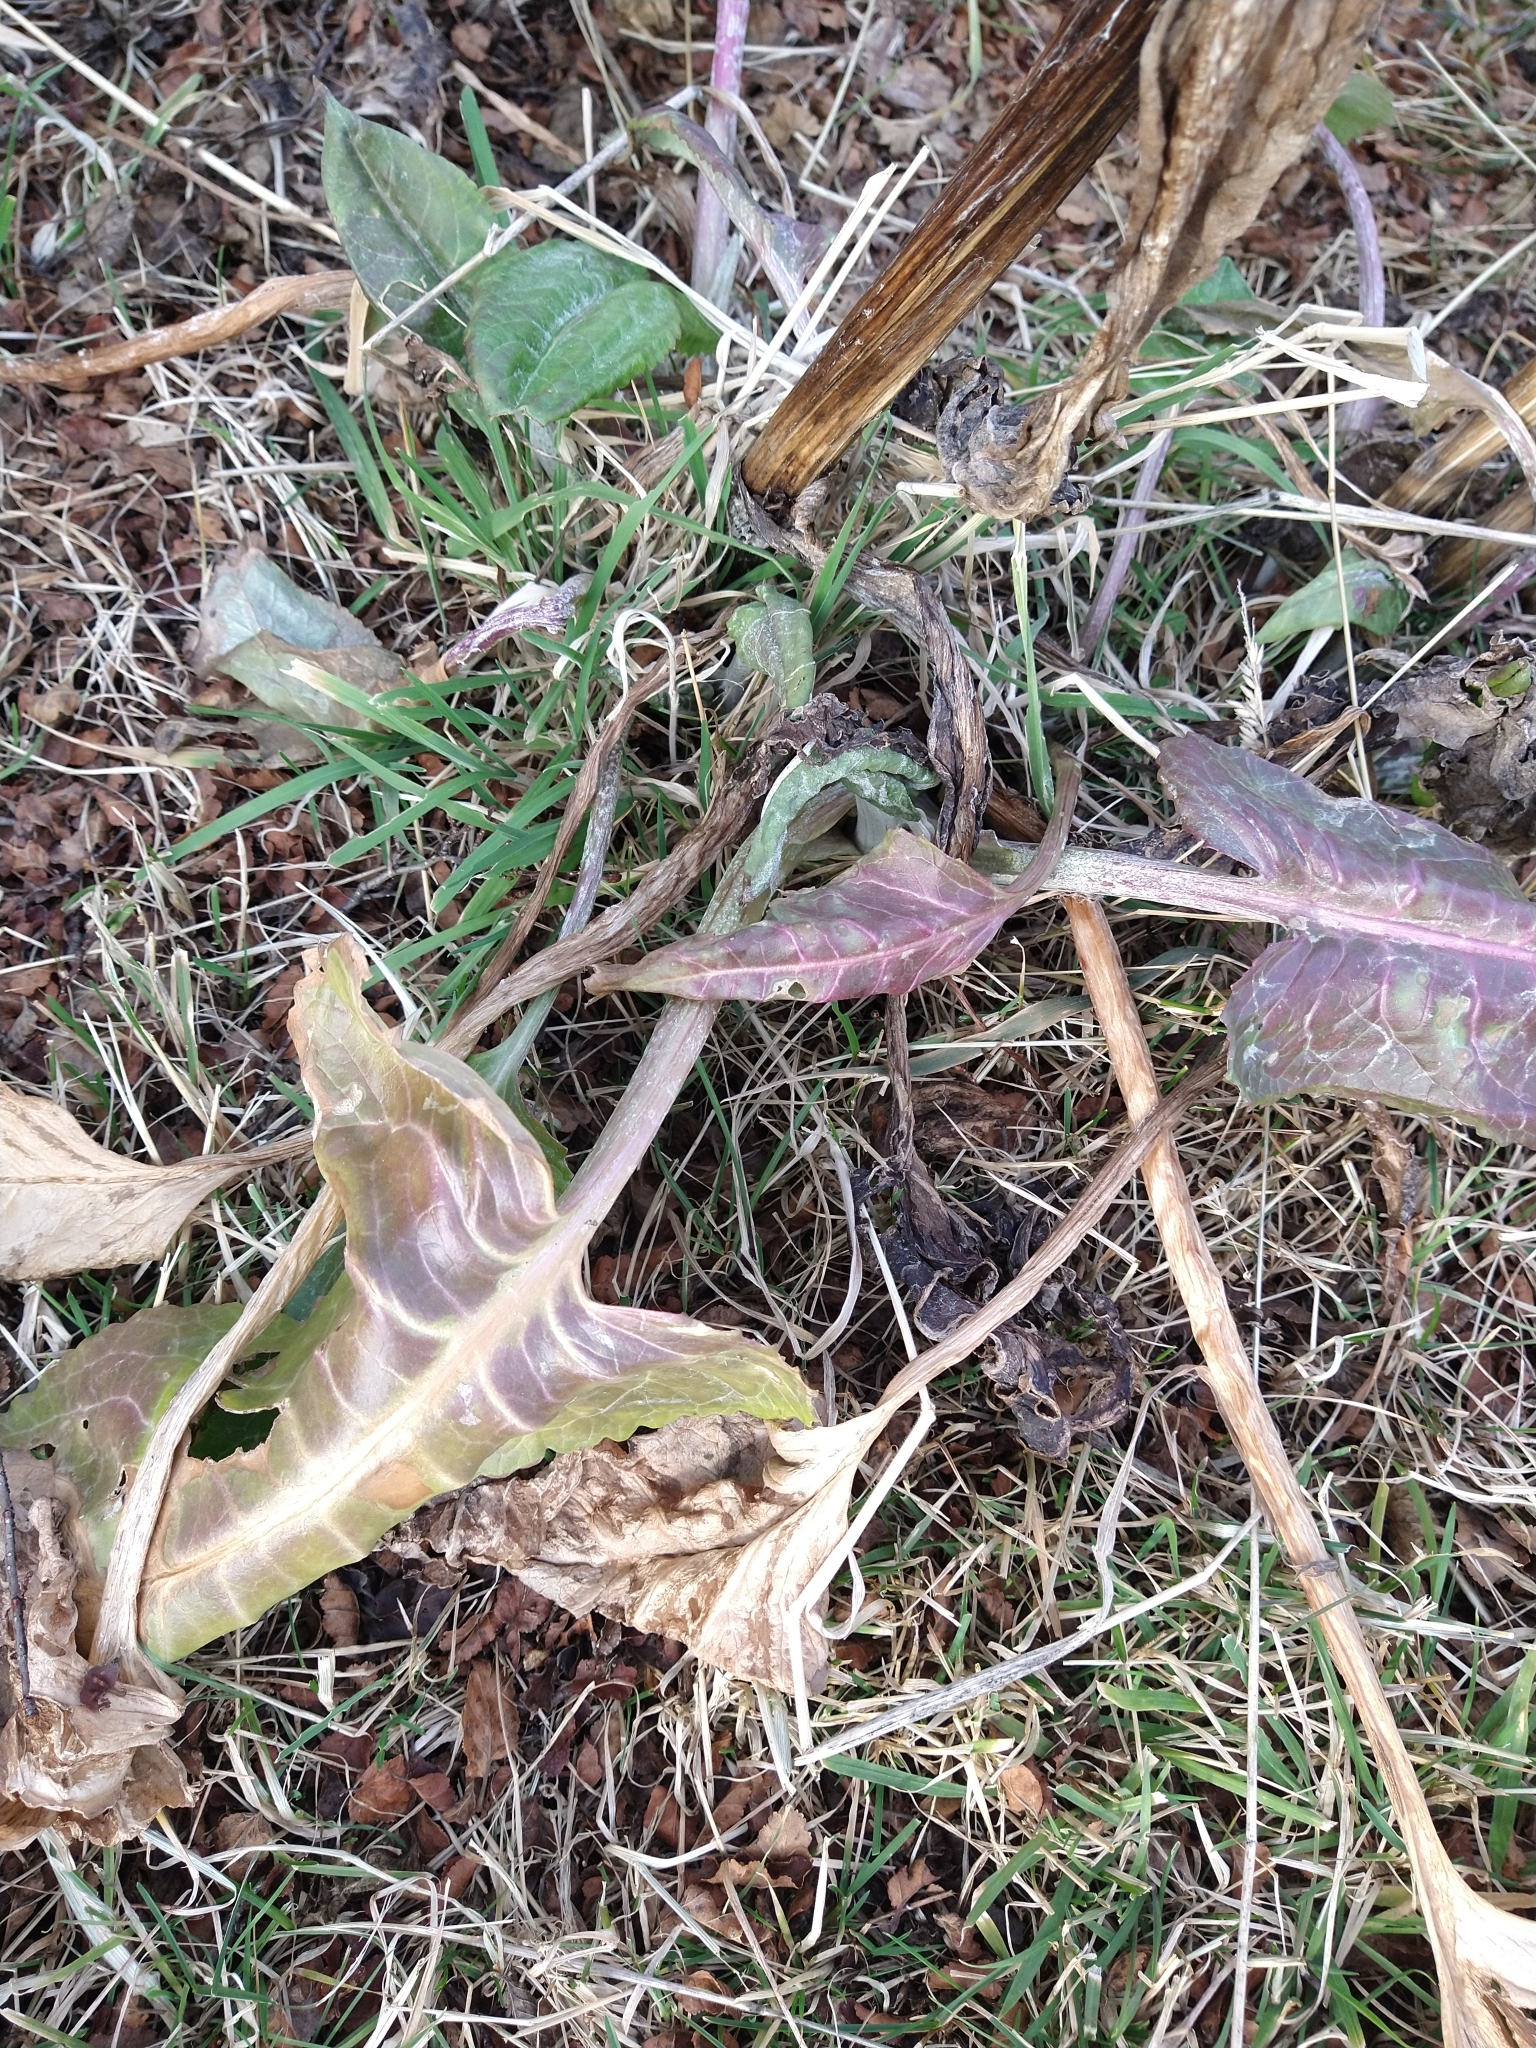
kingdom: Plantae
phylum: Tracheophyta
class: Magnoliopsida
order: Caryophyllales
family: Polygonaceae
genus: Rumex
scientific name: Rumex crispus
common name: Curled dock
